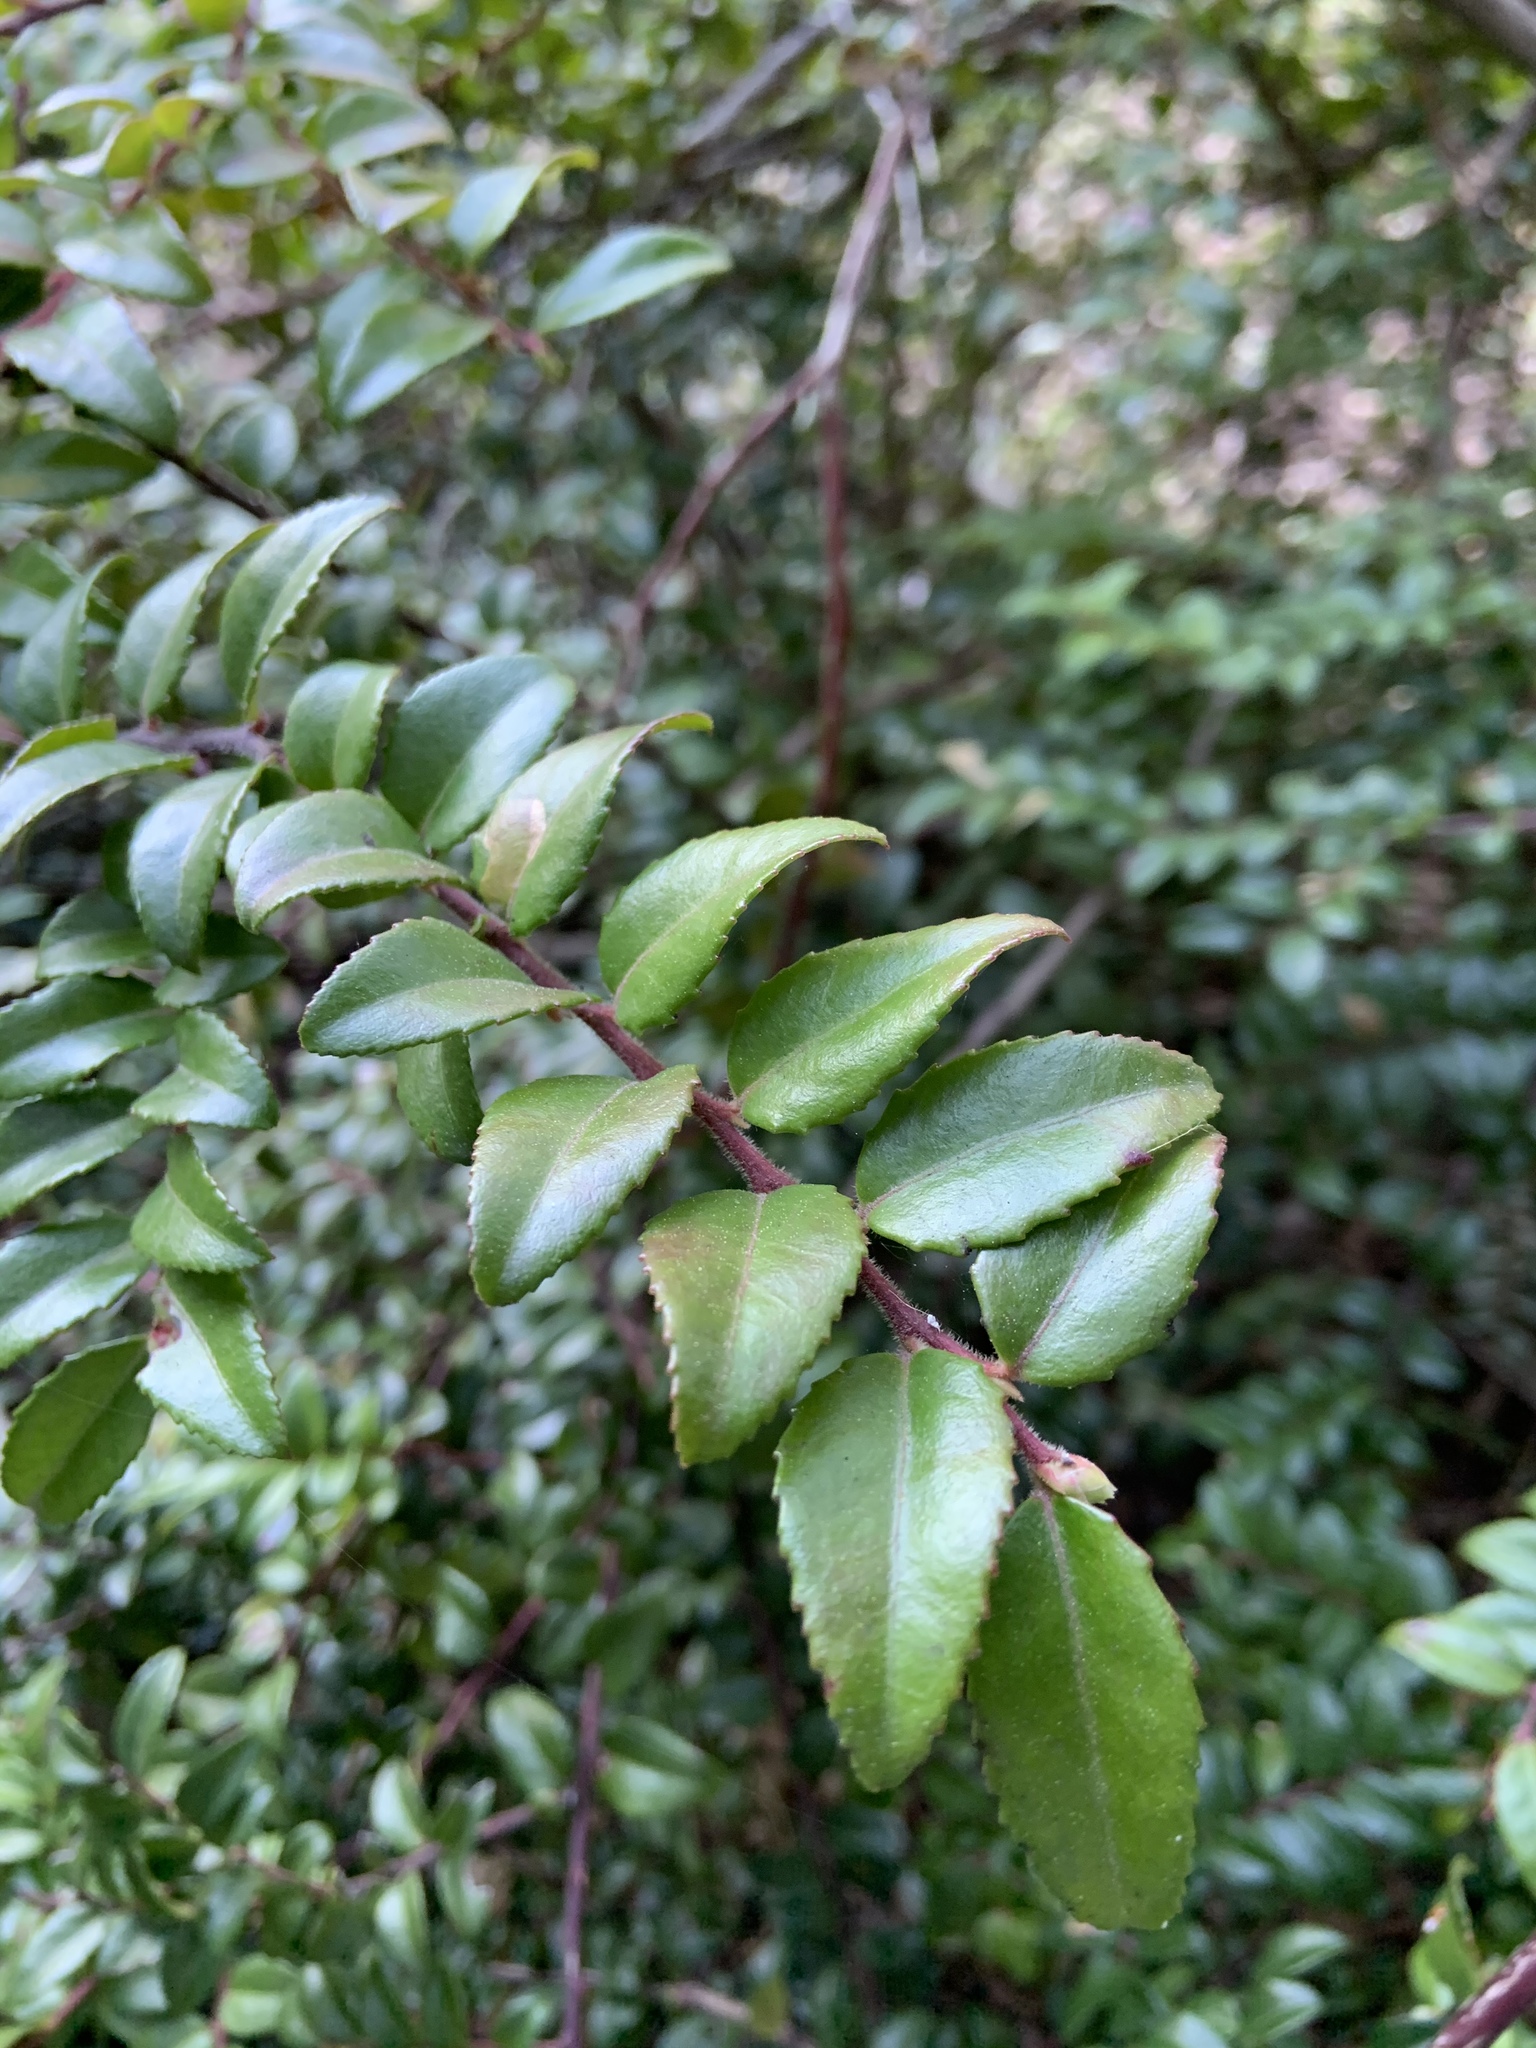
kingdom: Plantae
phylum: Tracheophyta
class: Magnoliopsida
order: Ericales
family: Ericaceae
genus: Vaccinium
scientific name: Vaccinium ovatum
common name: California-huckleberry
